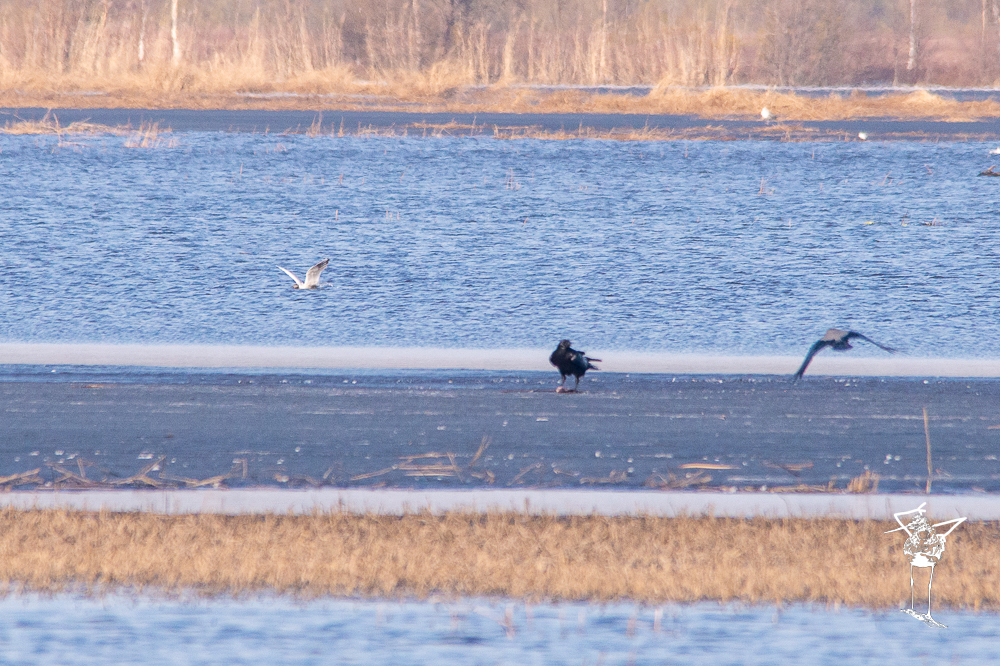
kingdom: Animalia
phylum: Chordata
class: Aves
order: Passeriformes
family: Corvidae
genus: Corvus
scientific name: Corvus cornix
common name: Hooded crow
